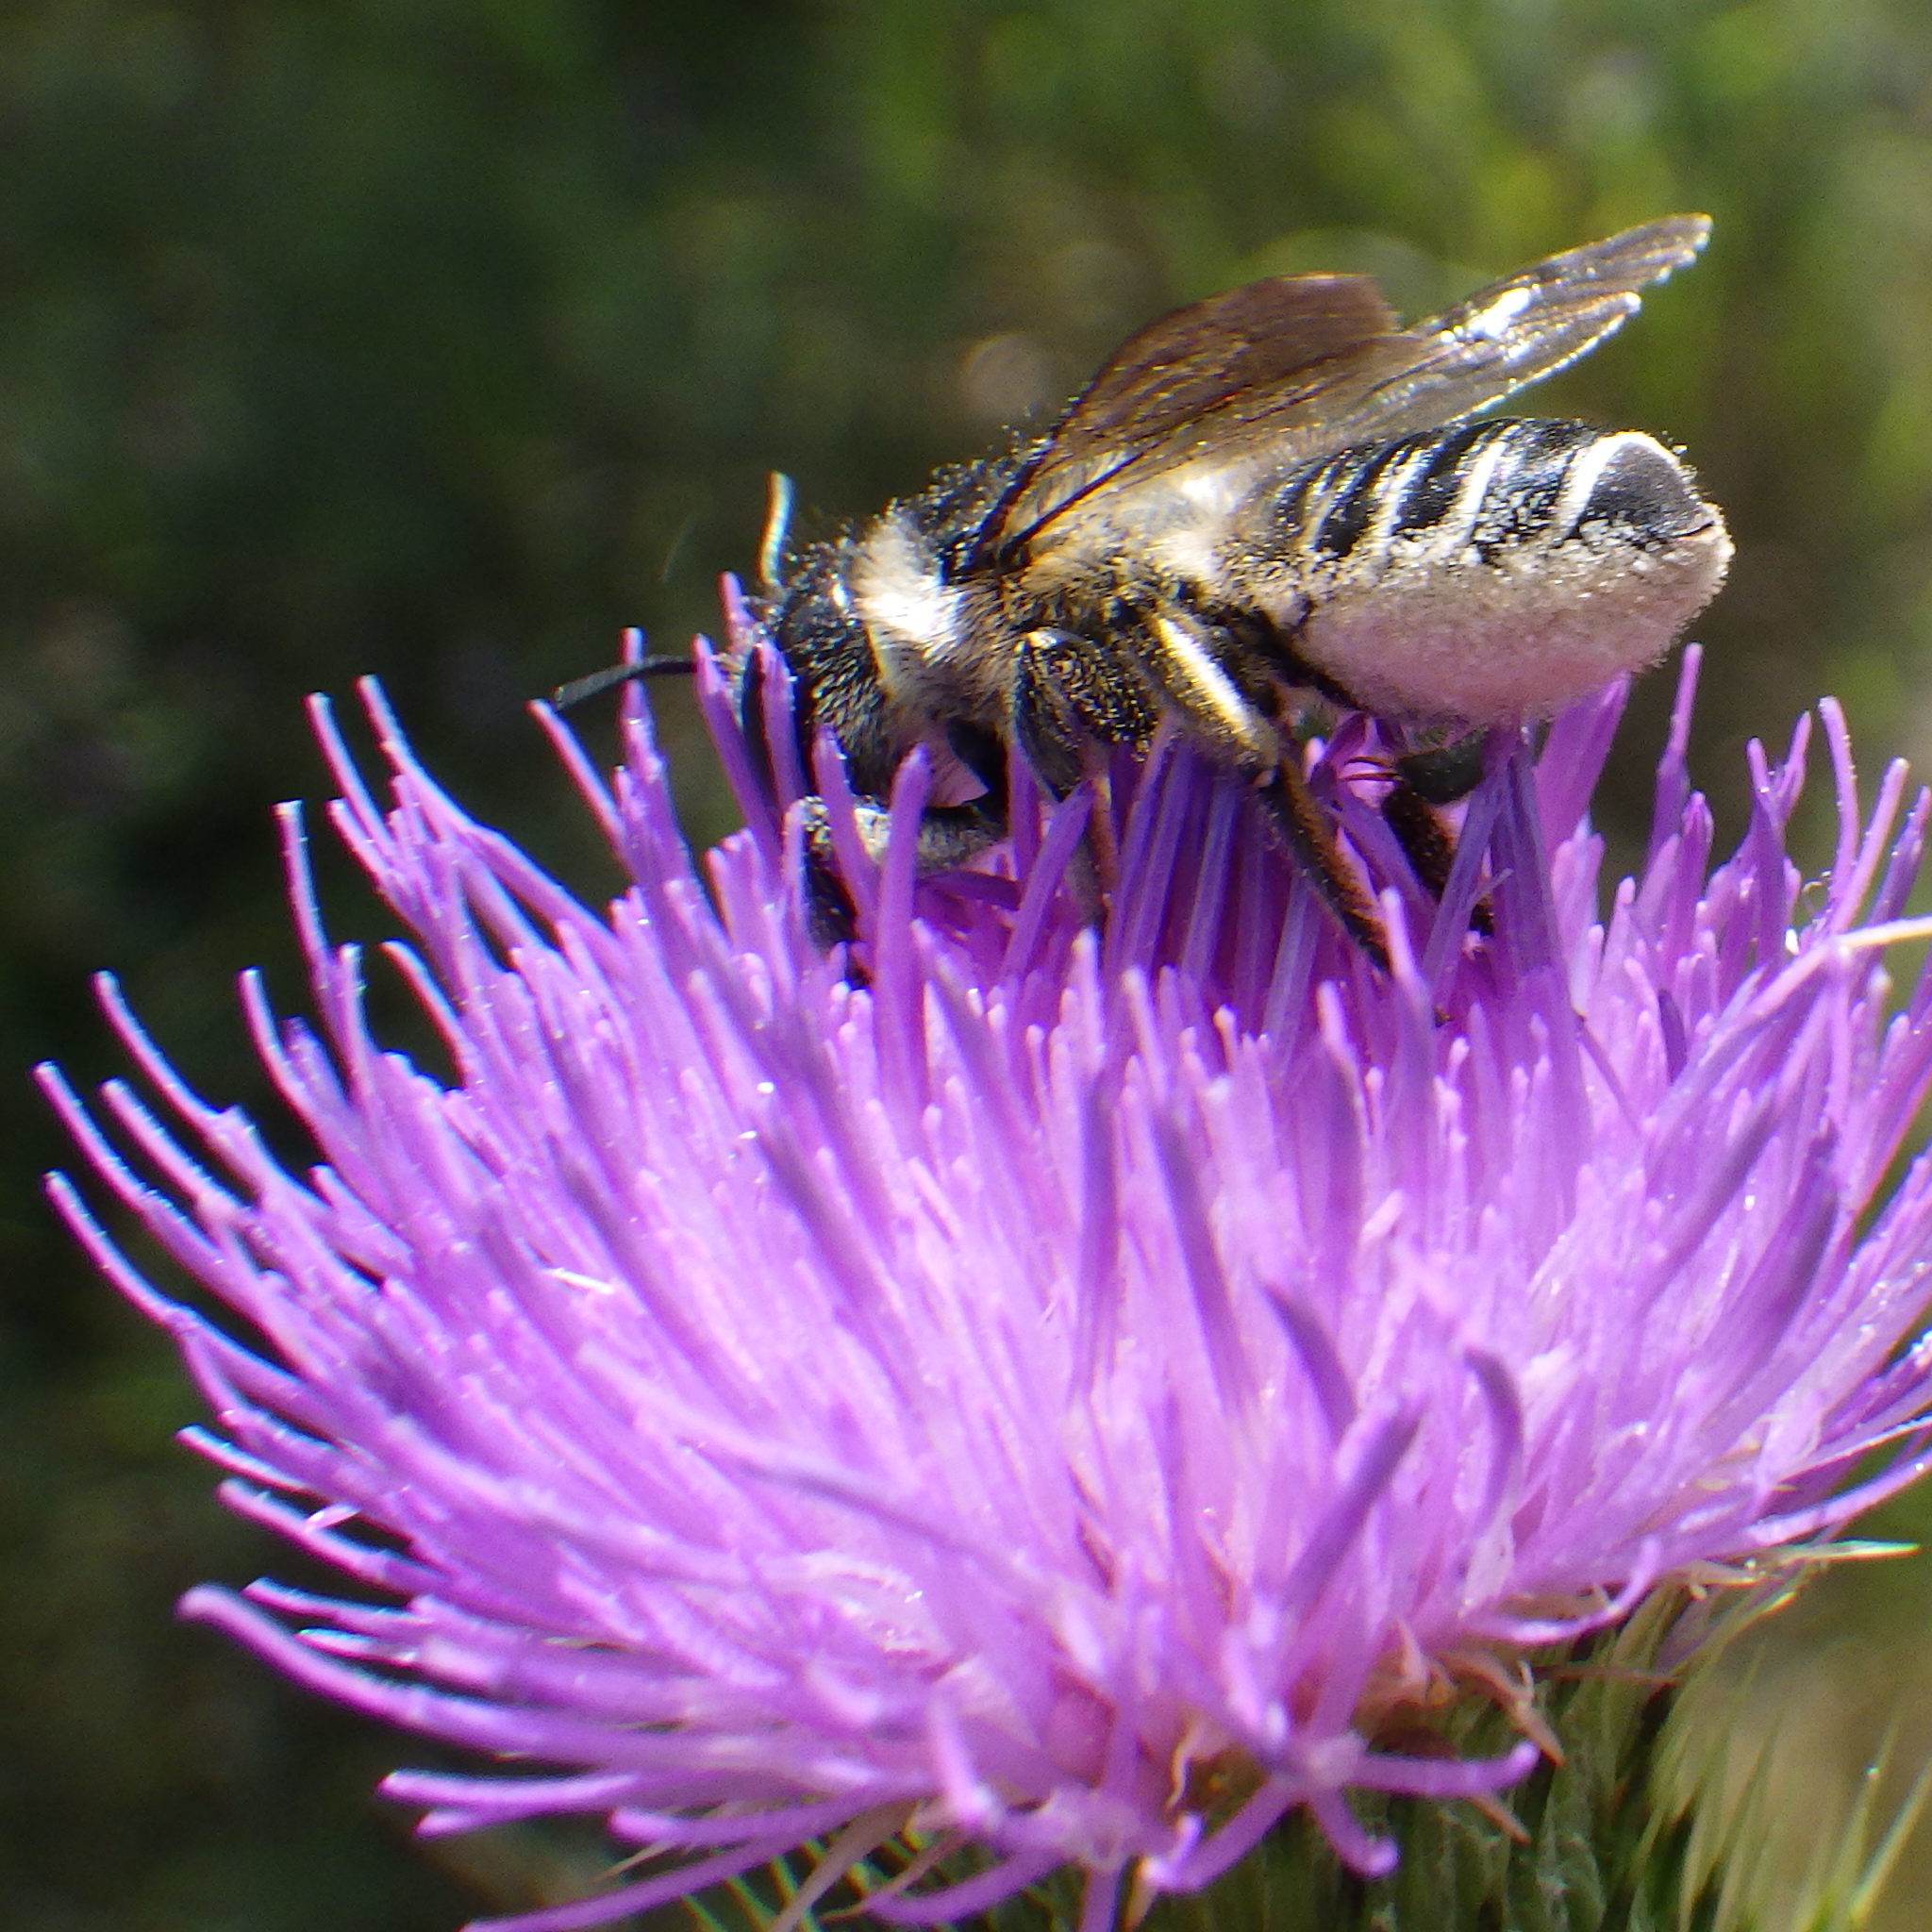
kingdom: Animalia
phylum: Arthropoda
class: Insecta
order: Hymenoptera
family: Megachilidae
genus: Megachile
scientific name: Megachile inermis
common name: Unarmed leafcutter bee
